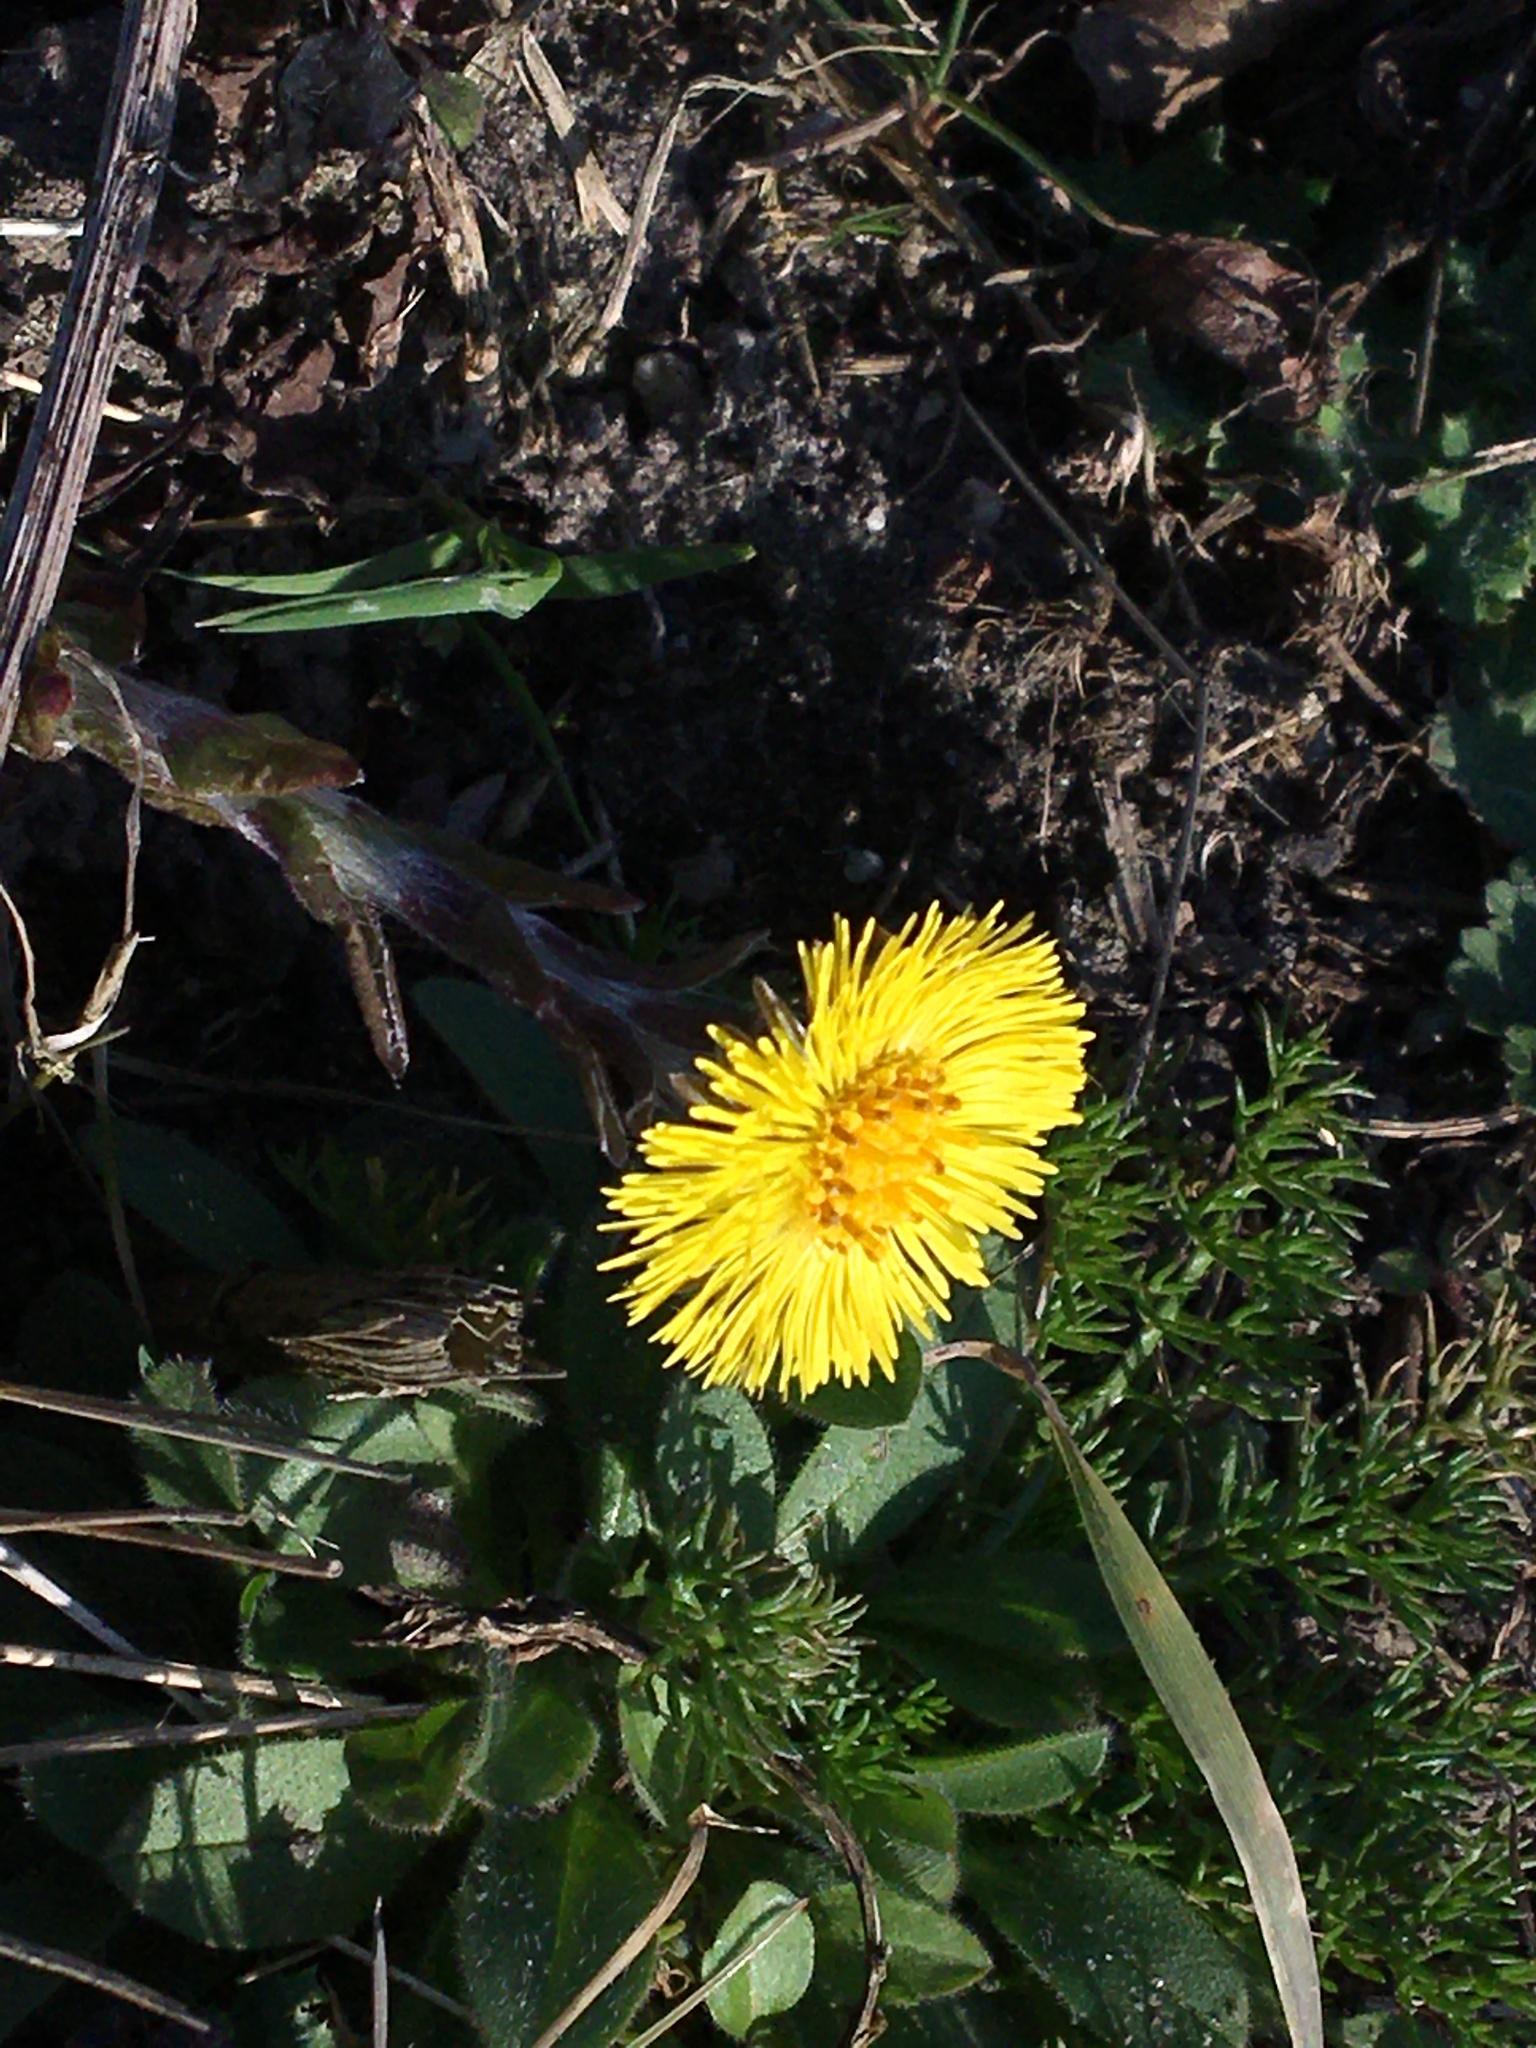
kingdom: Plantae
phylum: Tracheophyta
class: Magnoliopsida
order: Asterales
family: Asteraceae
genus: Tussilago
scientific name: Tussilago farfara
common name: Coltsfoot
